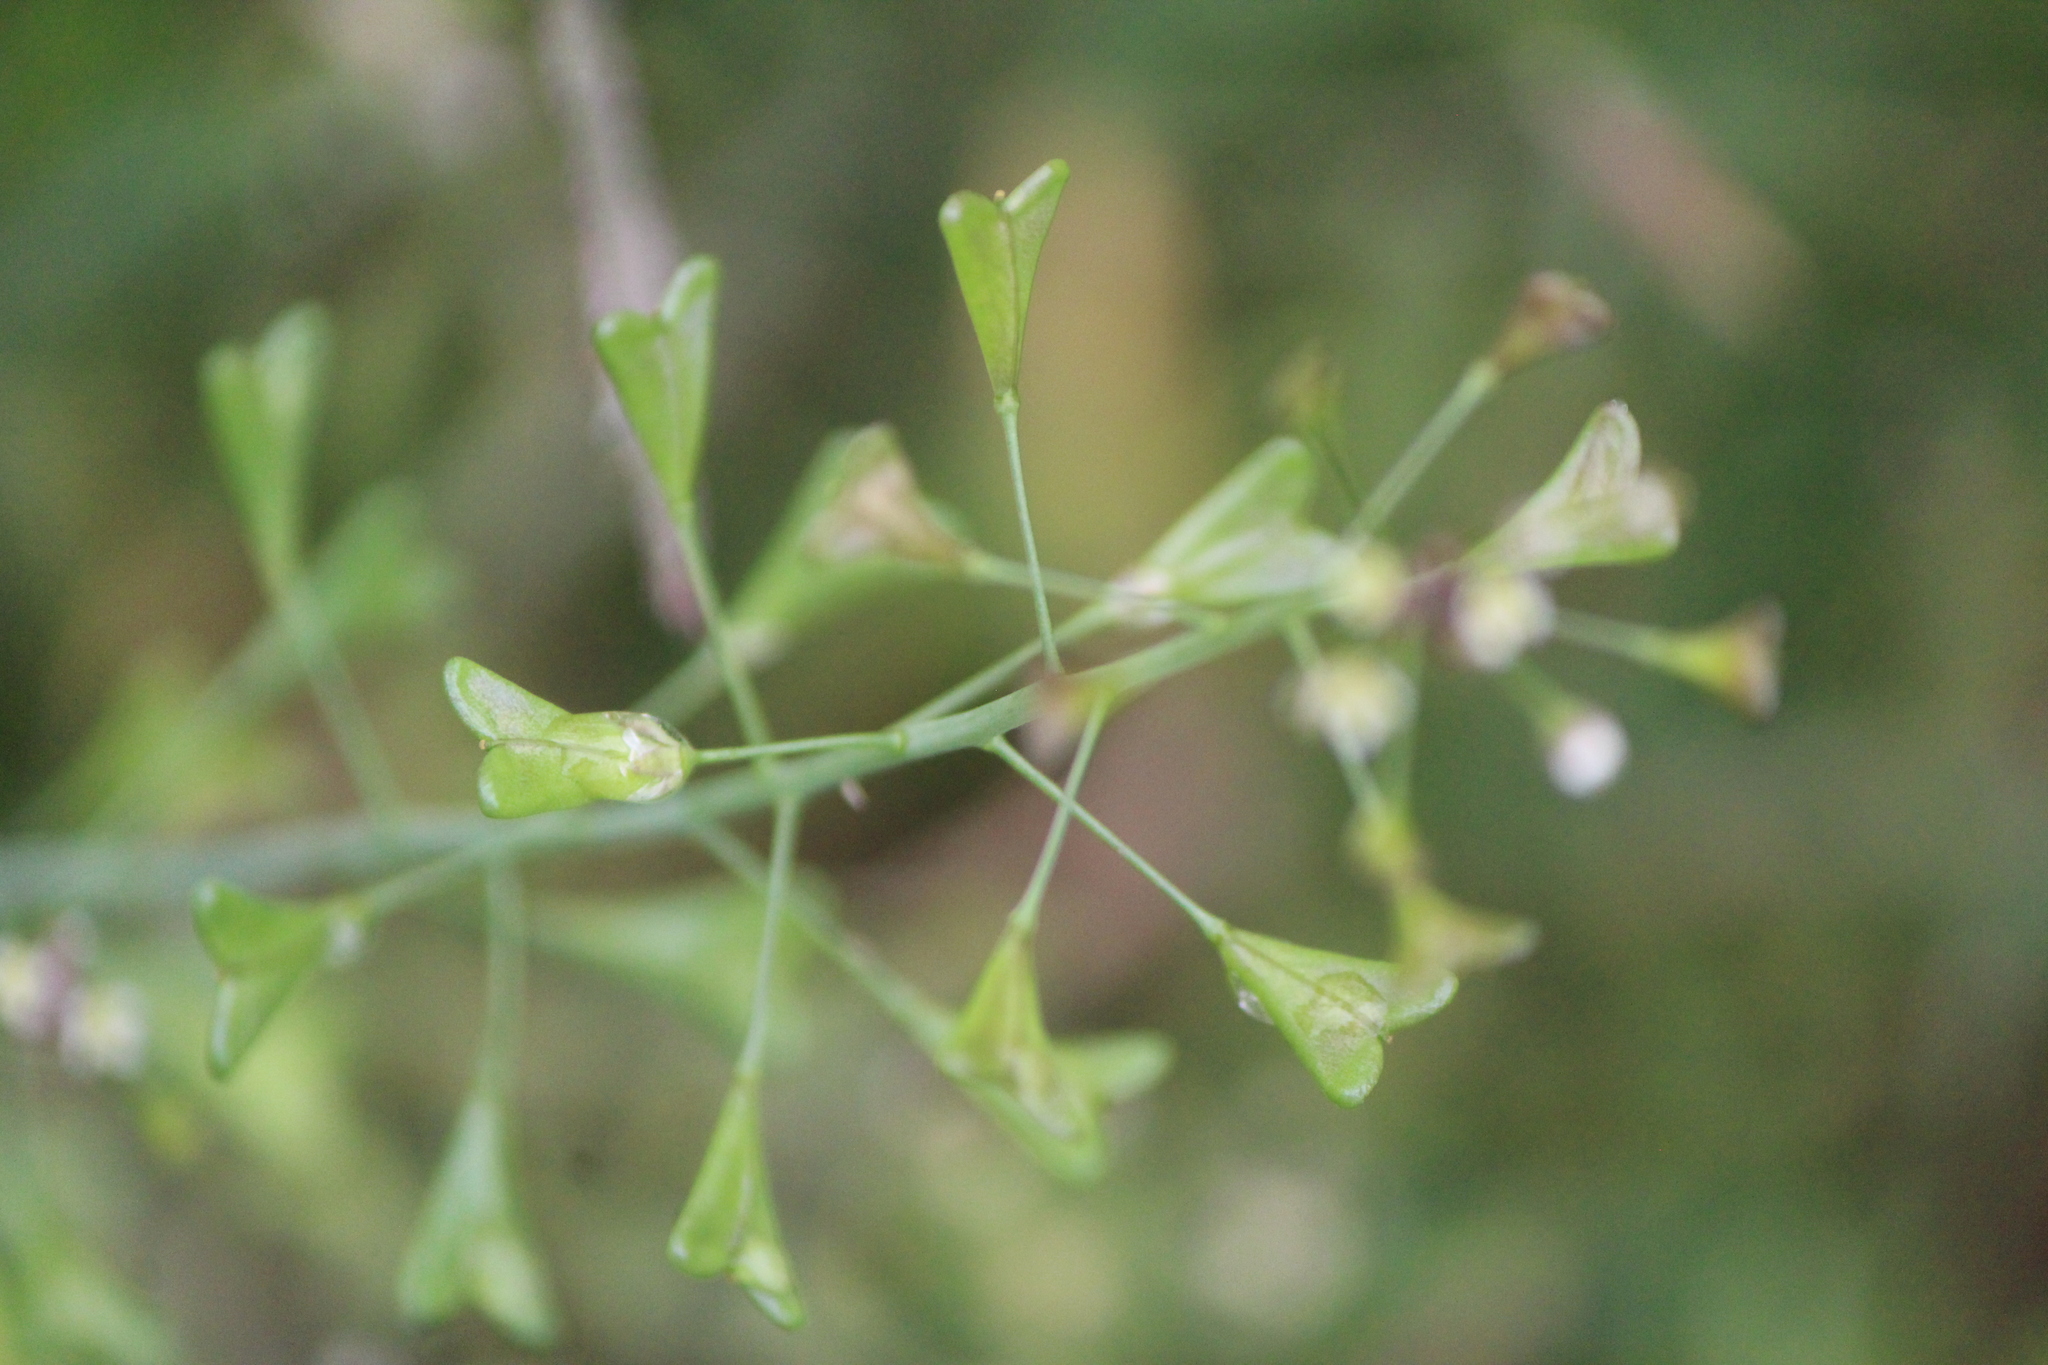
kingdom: Plantae
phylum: Tracheophyta
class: Magnoliopsida
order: Brassicales
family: Brassicaceae
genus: Capsella
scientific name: Capsella bursa-pastoris
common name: Shepherd's purse
